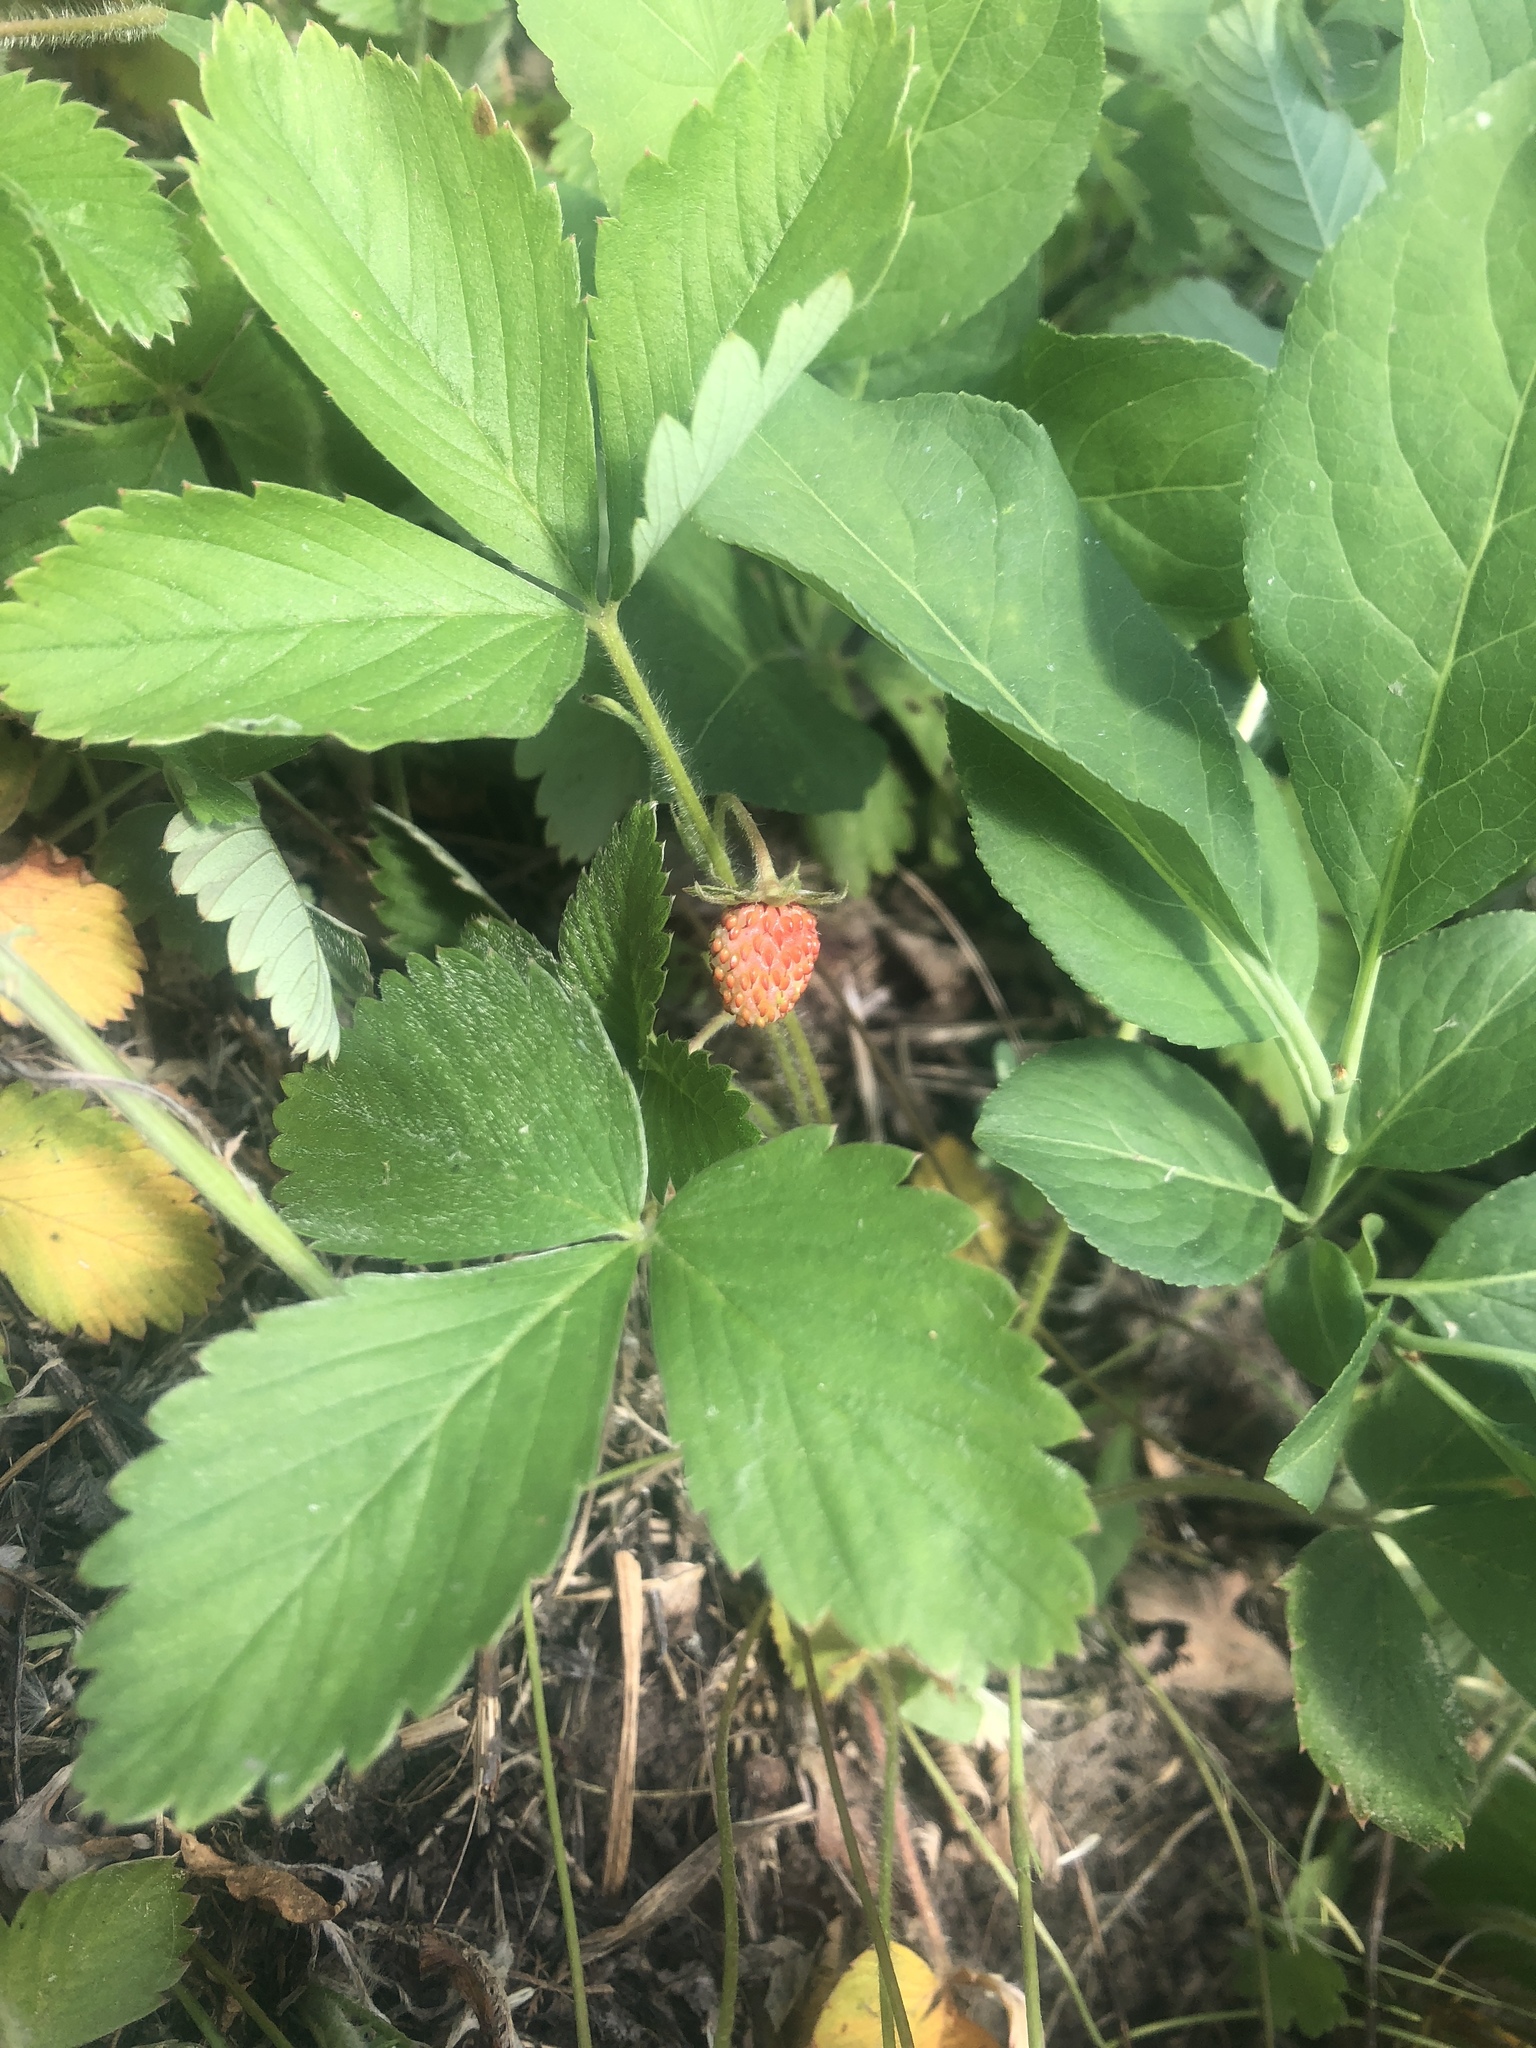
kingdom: Plantae
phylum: Tracheophyta
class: Magnoliopsida
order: Rosales
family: Rosaceae
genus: Fragaria
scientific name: Fragaria vesca
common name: Wild strawberry
